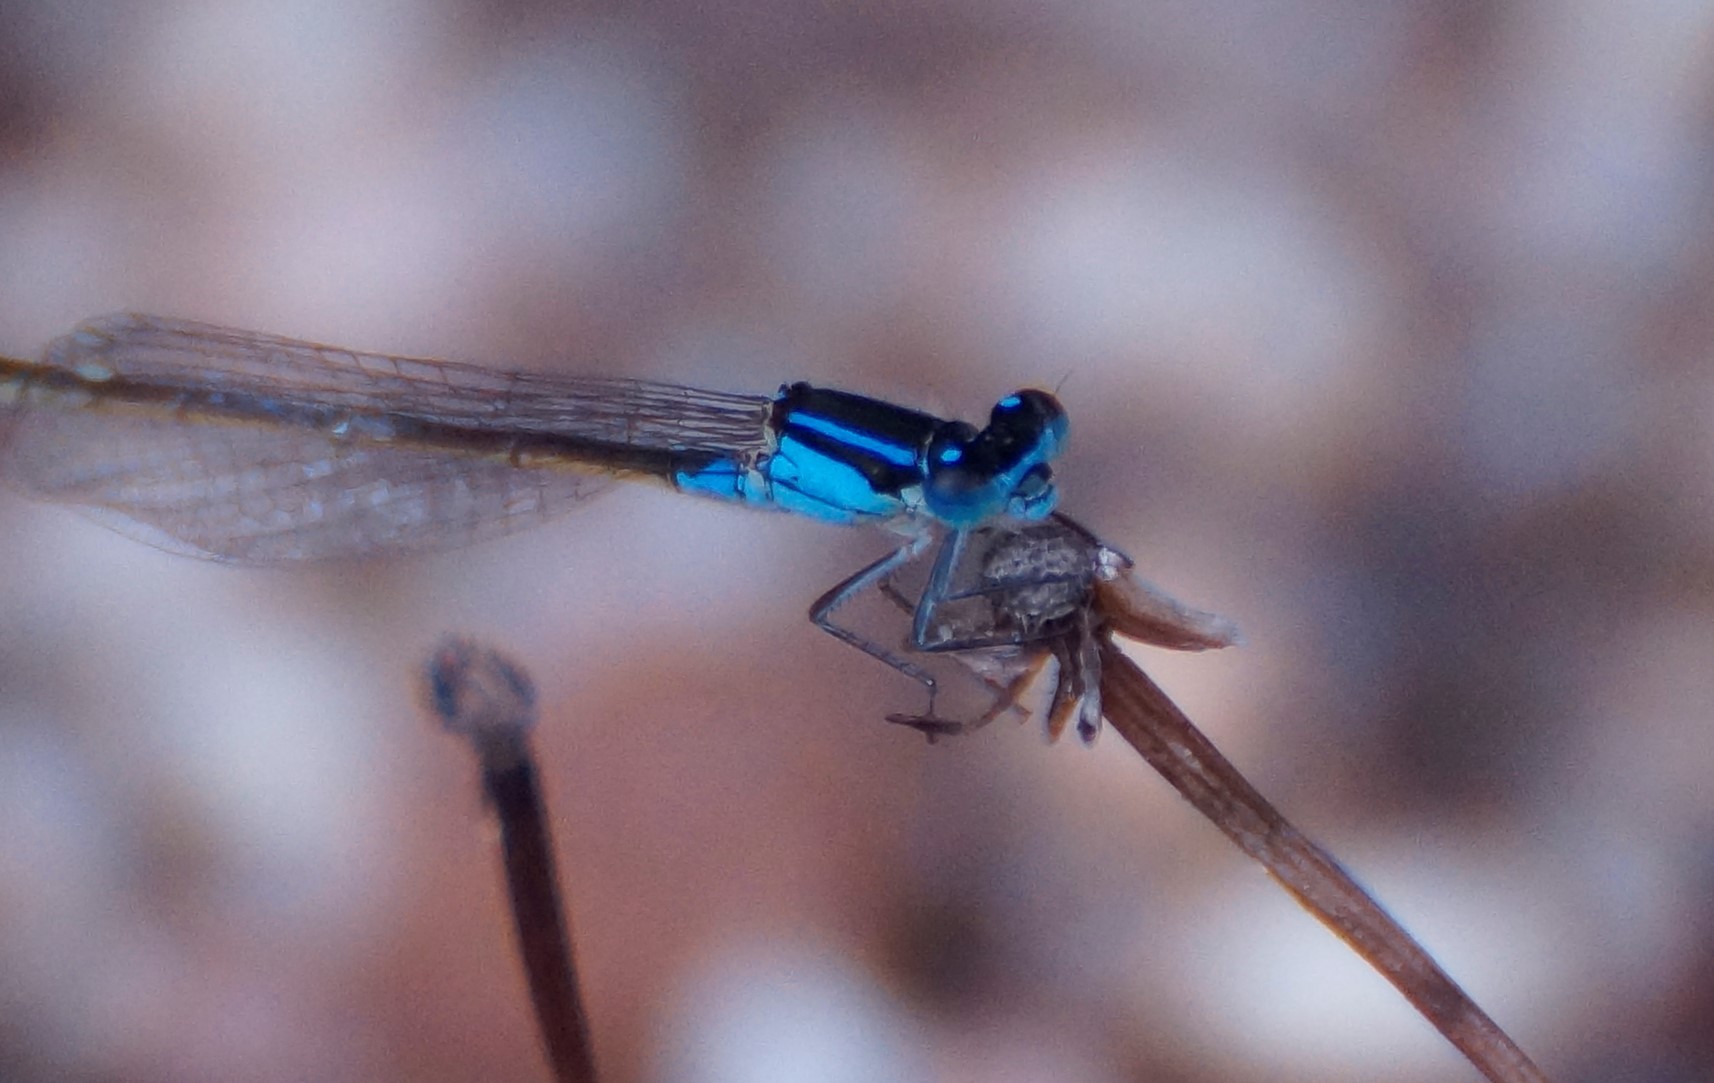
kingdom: Animalia
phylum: Arthropoda
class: Insecta
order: Odonata
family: Coenagrionidae
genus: Ischnura
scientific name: Ischnura heterosticta
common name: Common bluetail
